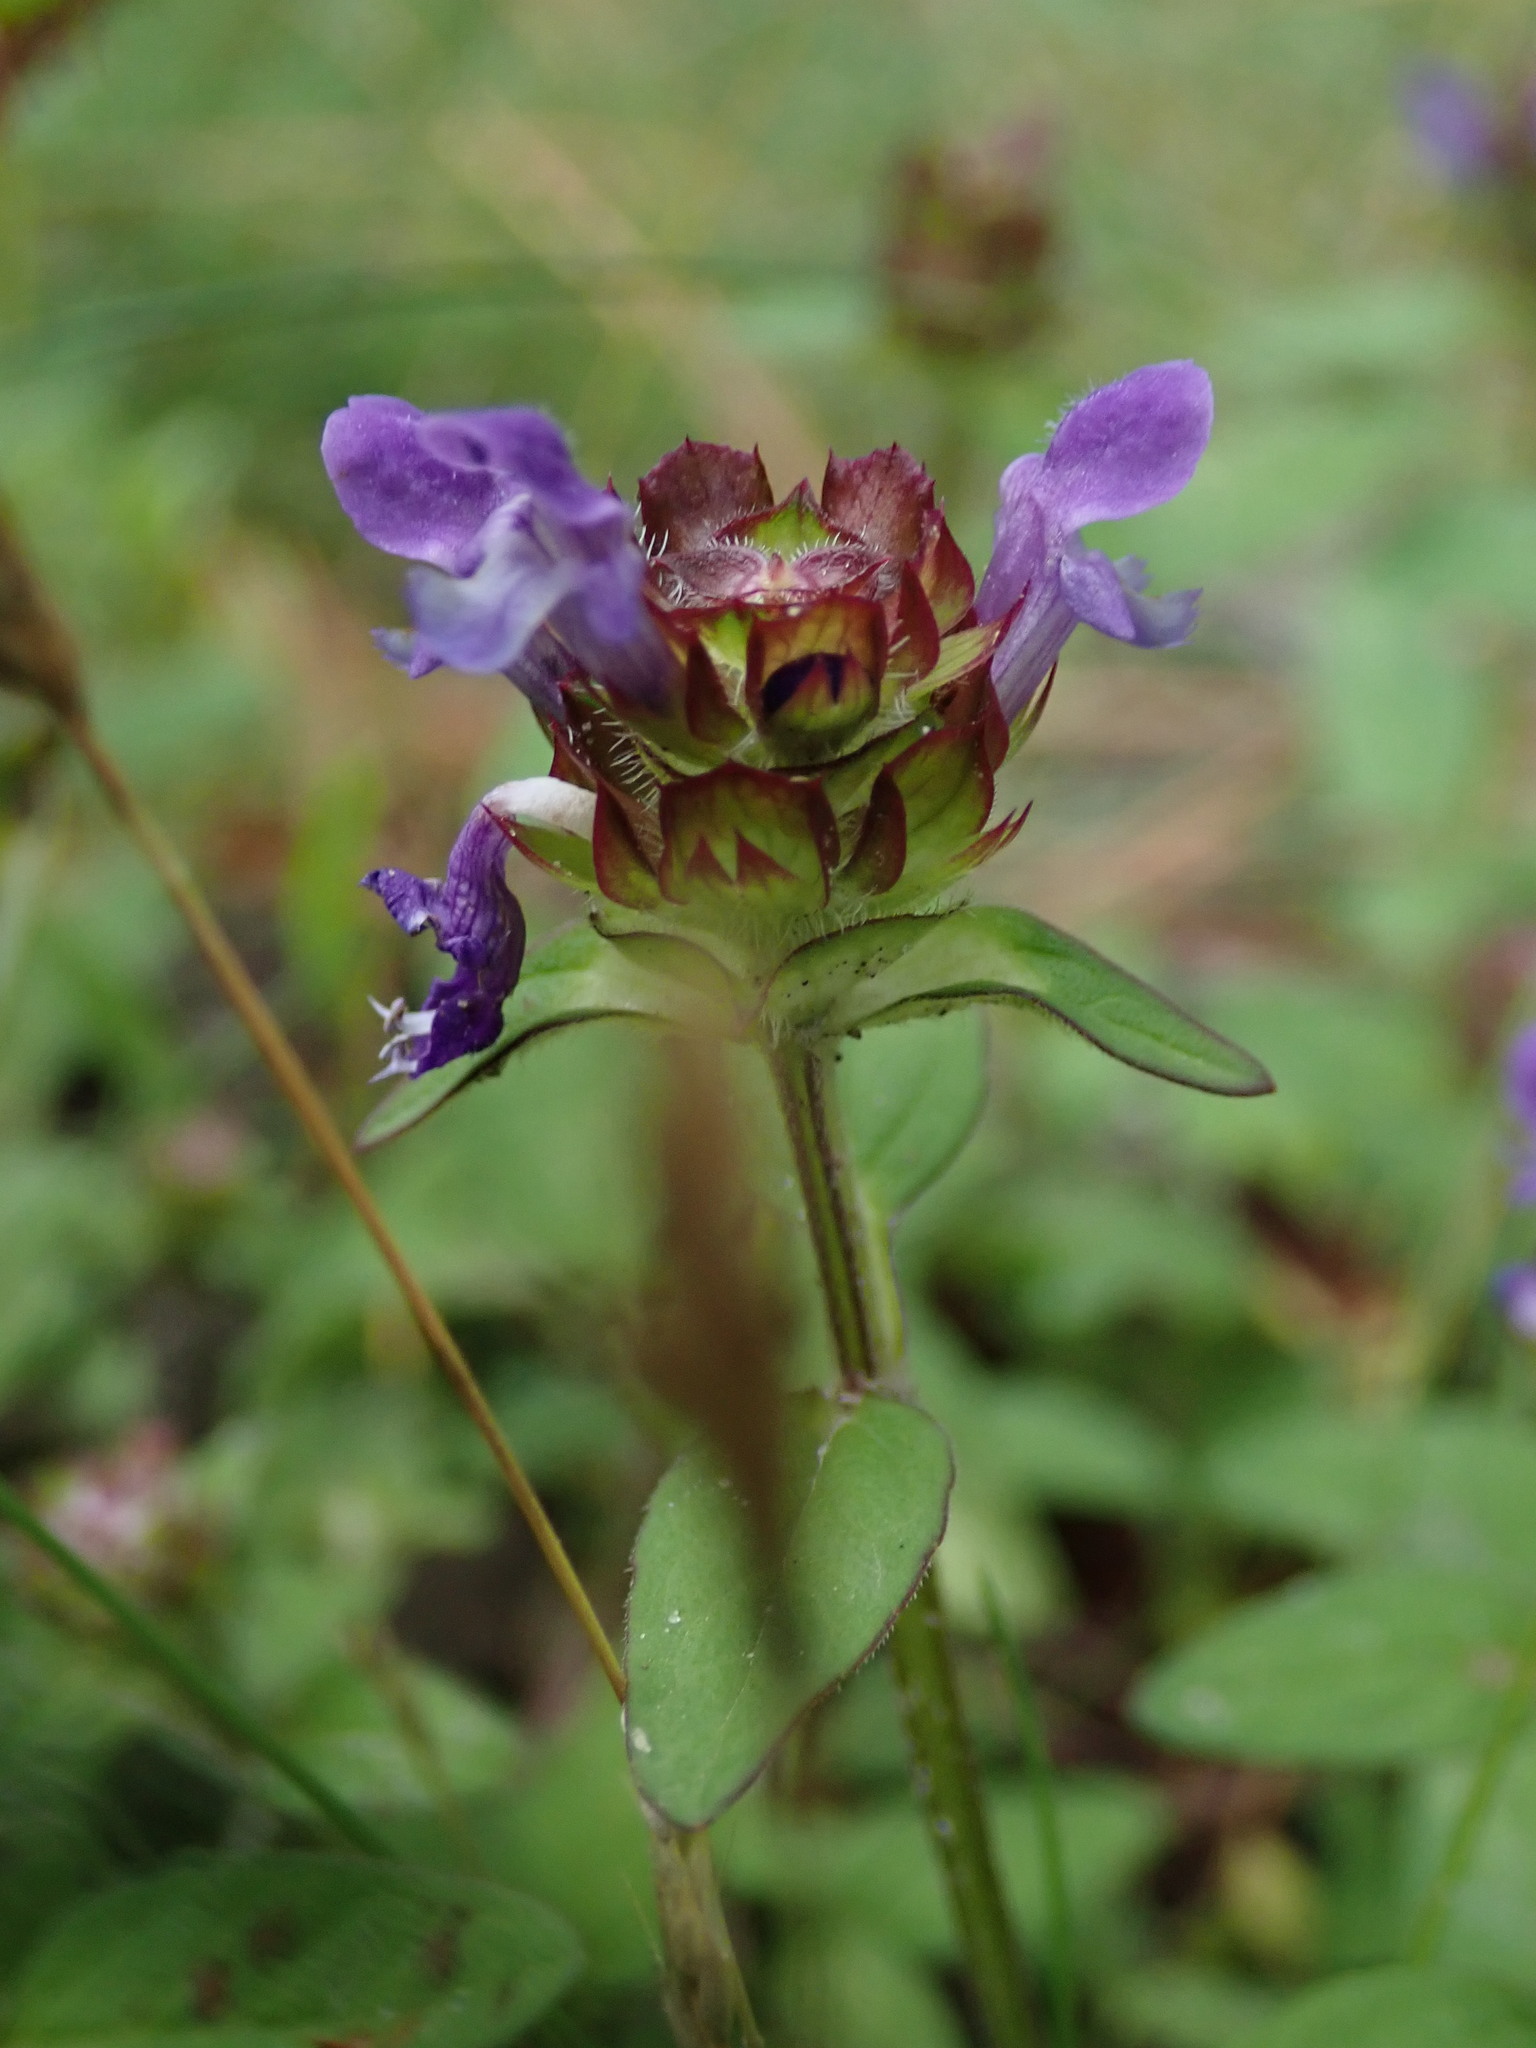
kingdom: Plantae
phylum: Tracheophyta
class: Magnoliopsida
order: Lamiales
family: Lamiaceae
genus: Prunella
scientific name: Prunella vulgaris
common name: Heal-all
